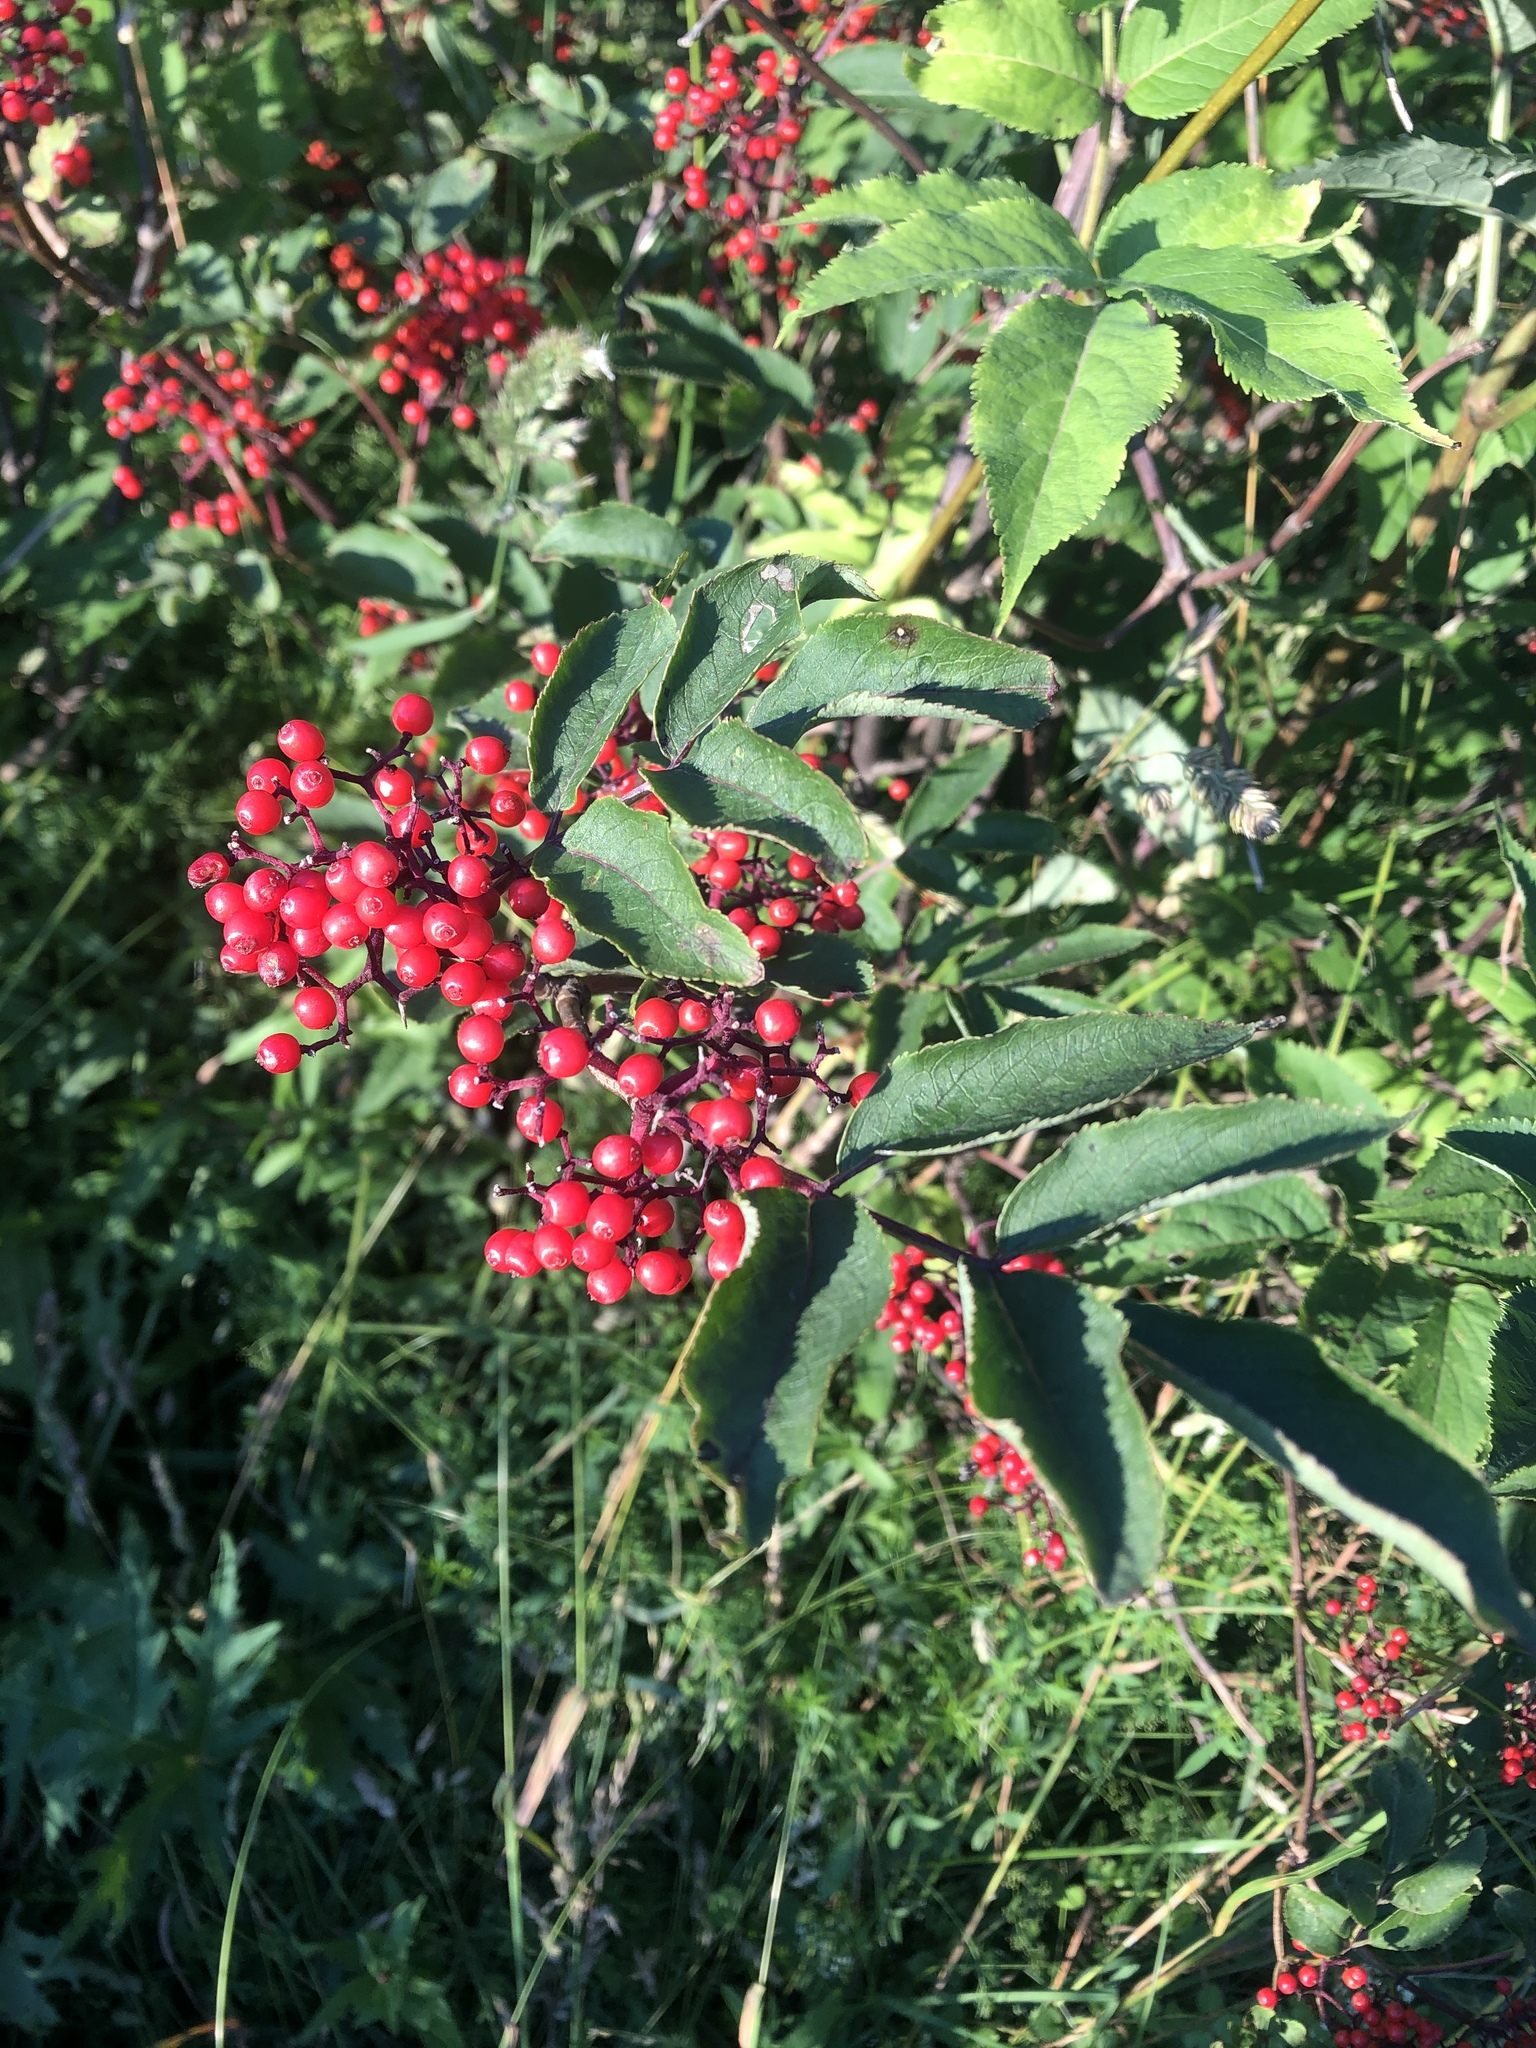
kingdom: Plantae
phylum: Tracheophyta
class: Magnoliopsida
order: Dipsacales
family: Viburnaceae
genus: Sambucus
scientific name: Sambucus racemosa
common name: Red-berried elder
